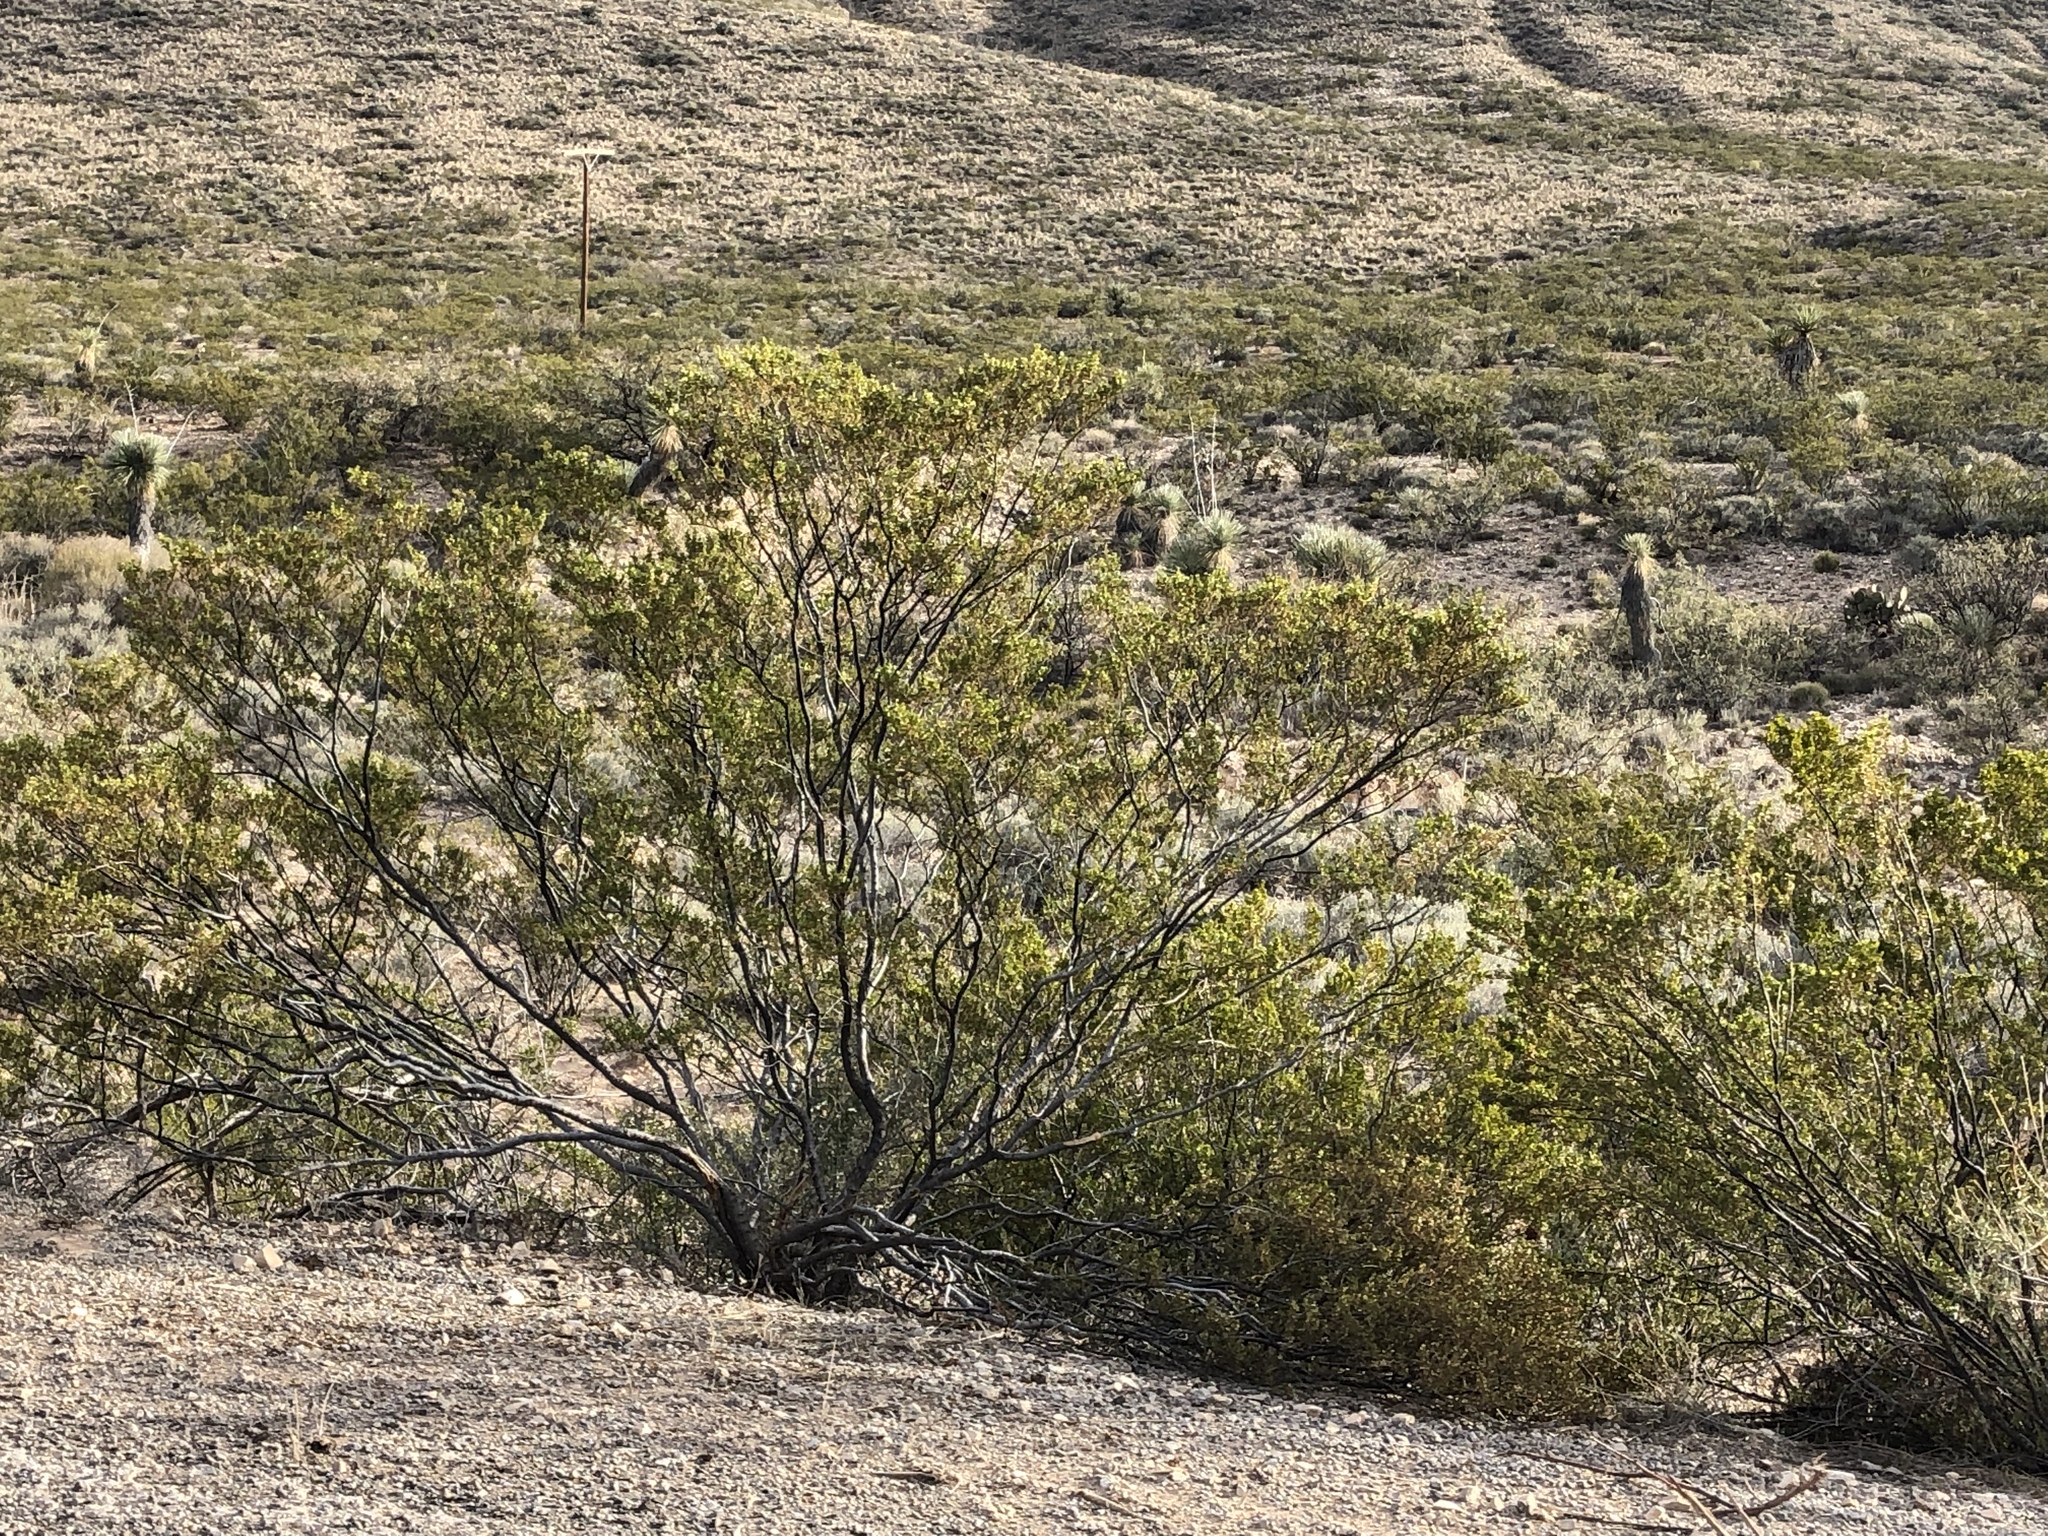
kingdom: Plantae
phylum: Tracheophyta
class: Magnoliopsida
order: Zygophyllales
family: Zygophyllaceae
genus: Larrea
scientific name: Larrea tridentata
